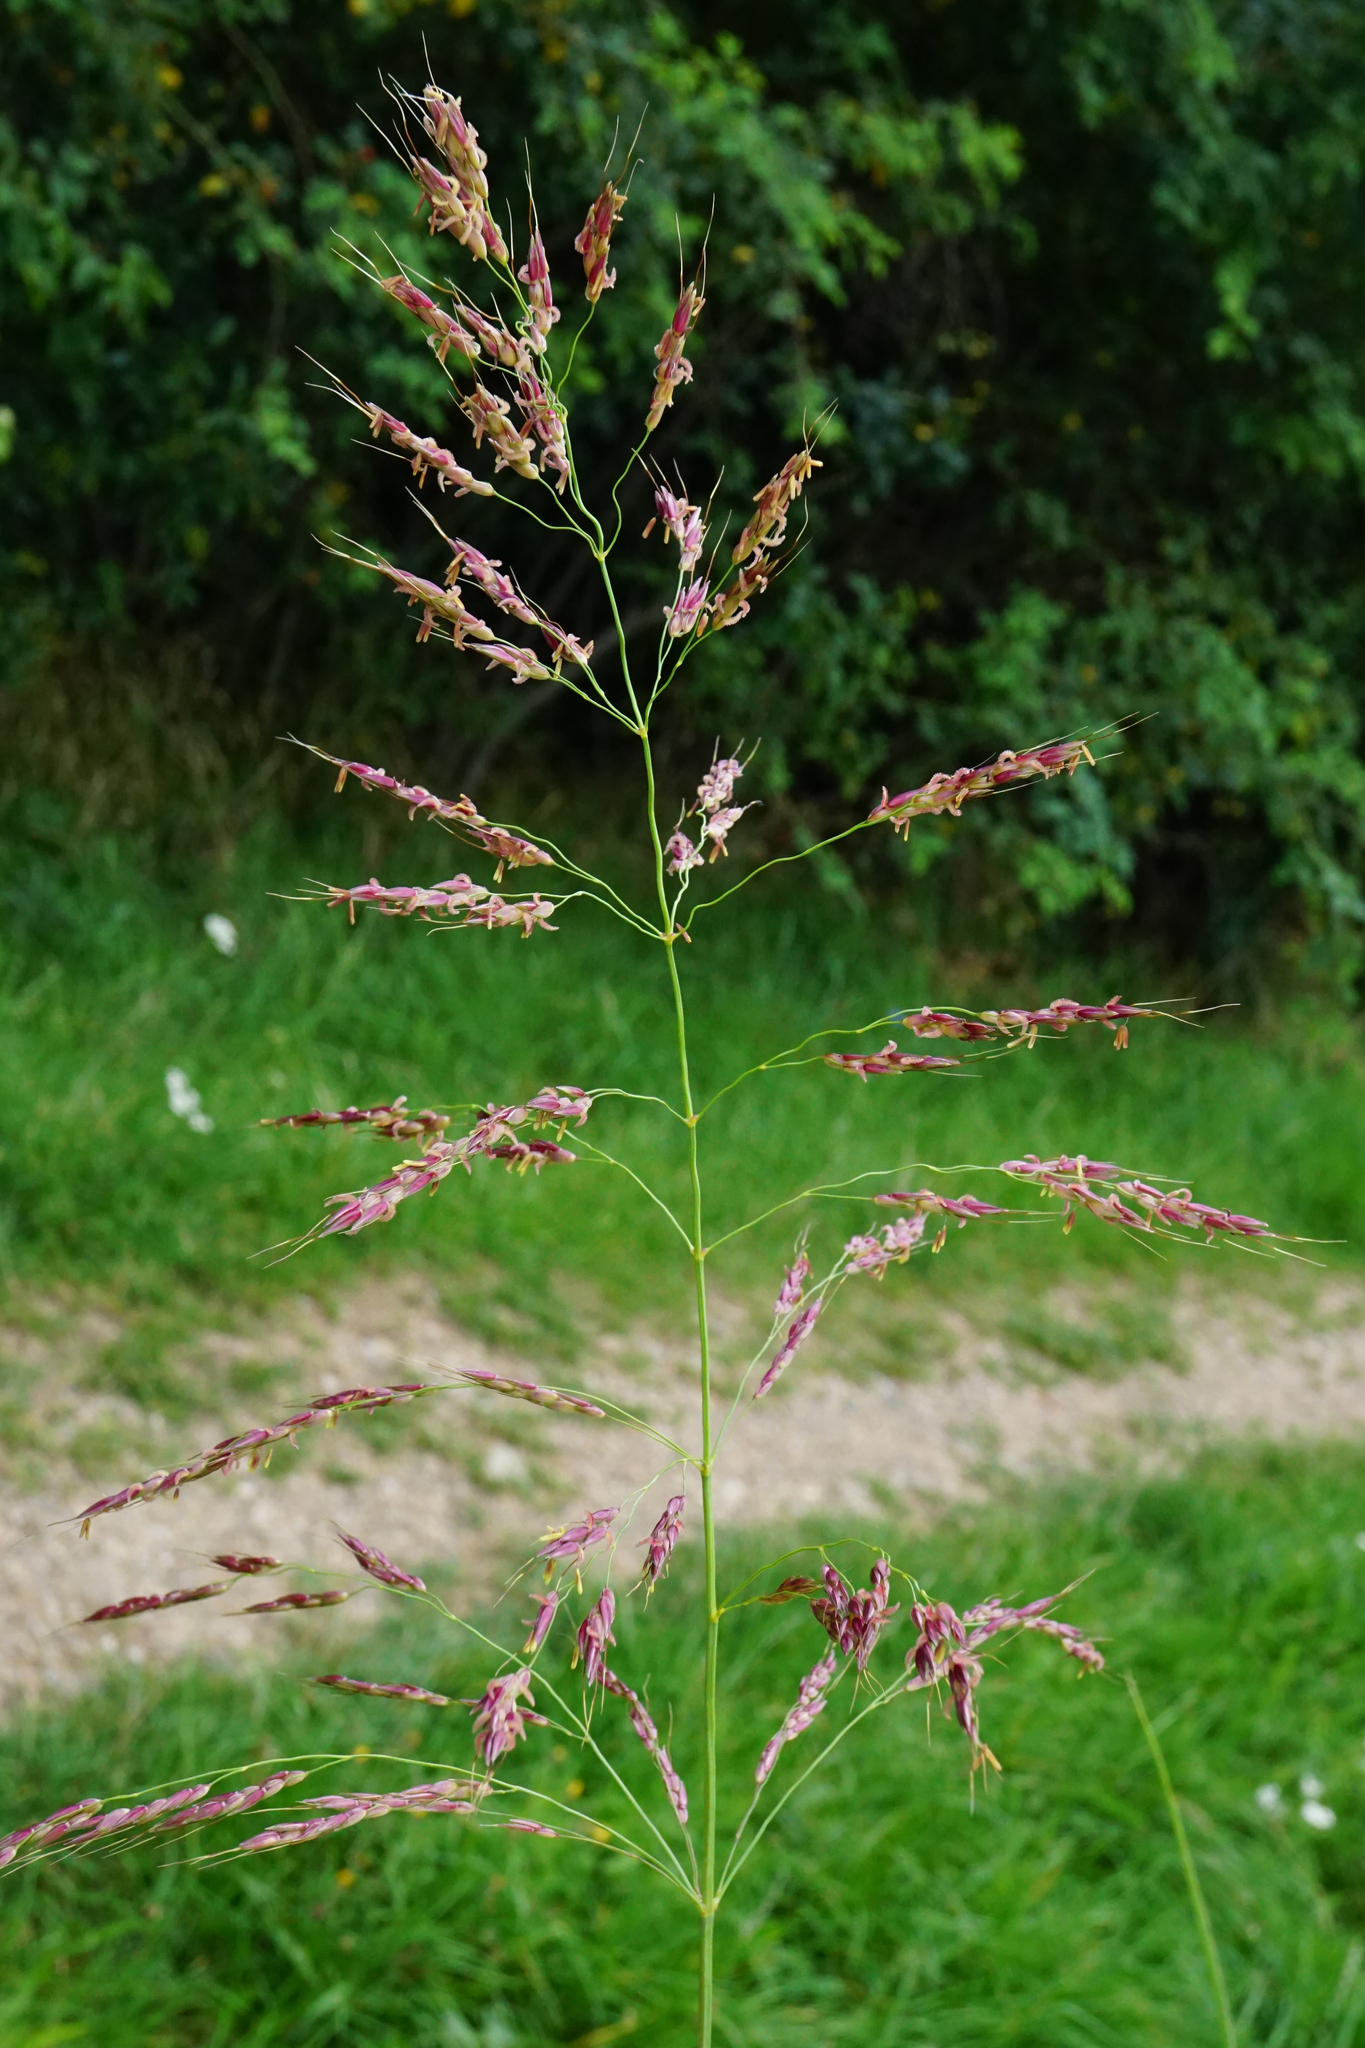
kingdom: Plantae
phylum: Tracheophyta
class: Liliopsida
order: Poales
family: Poaceae
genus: Sorghum
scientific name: Sorghum halepense
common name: Johnson-grass
